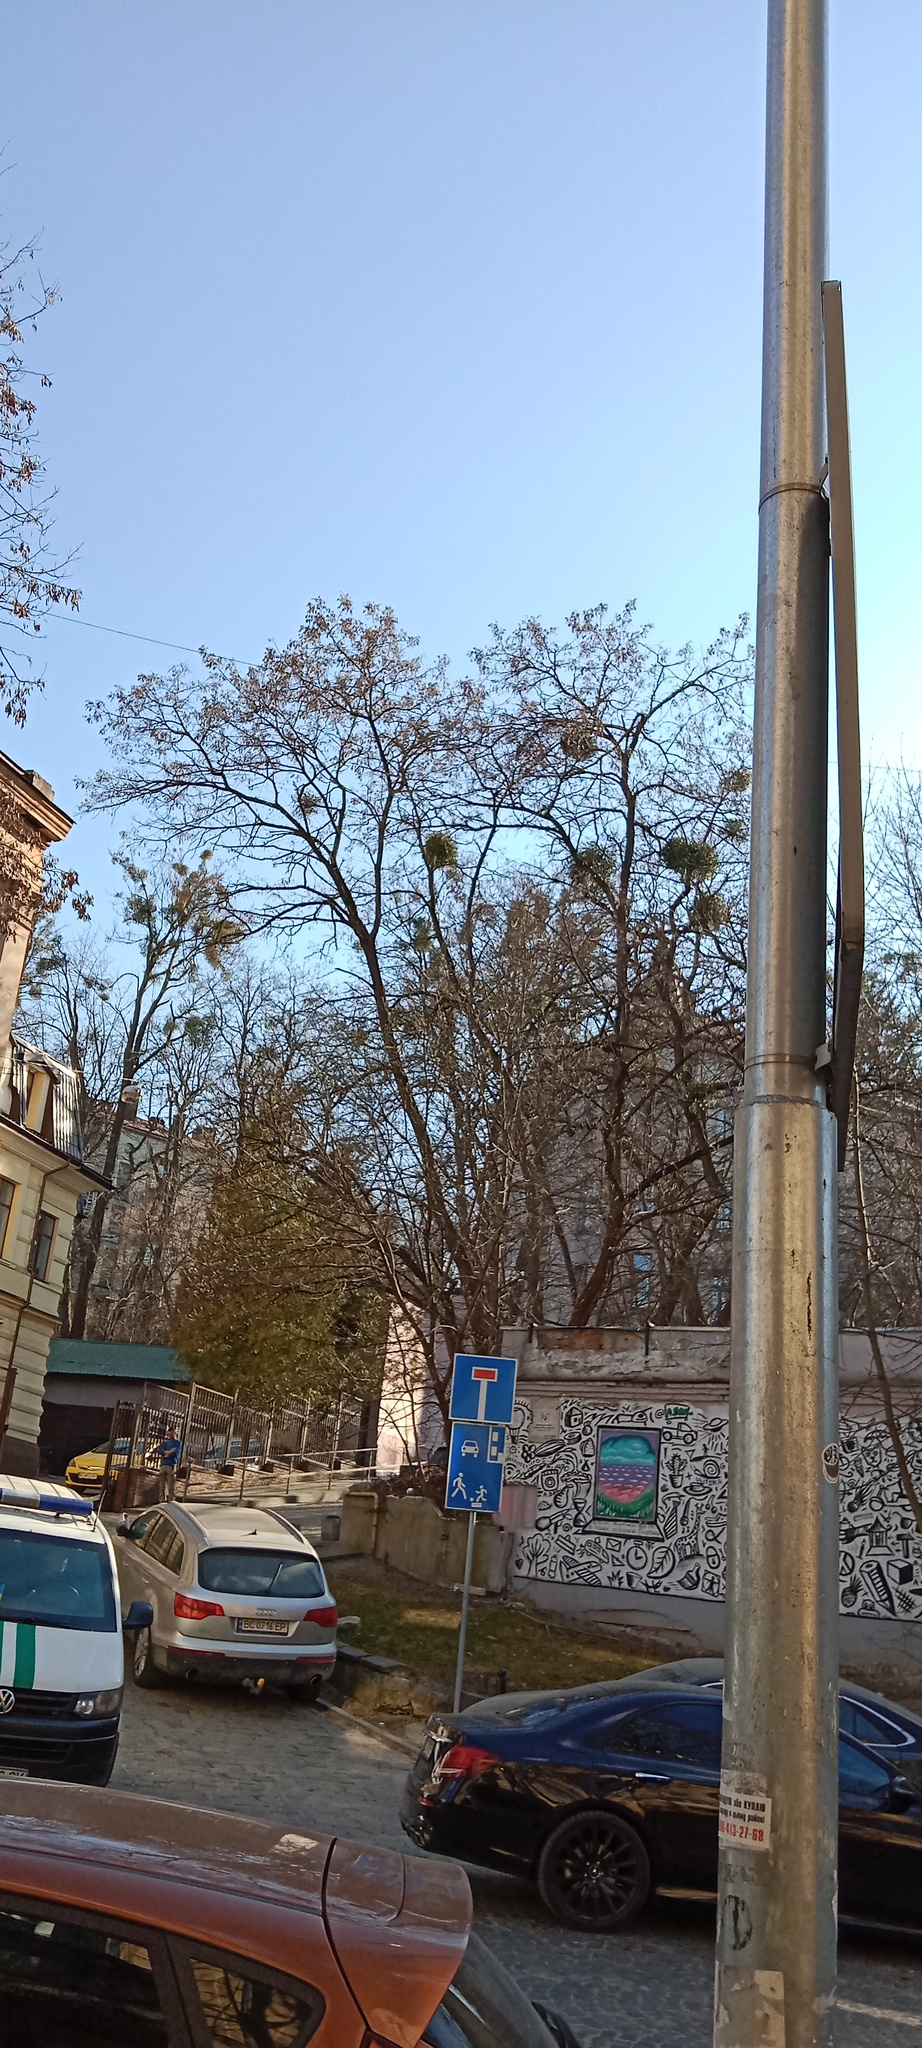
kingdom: Plantae
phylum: Tracheophyta
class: Magnoliopsida
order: Santalales
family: Viscaceae
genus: Viscum
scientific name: Viscum album
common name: Mistletoe
